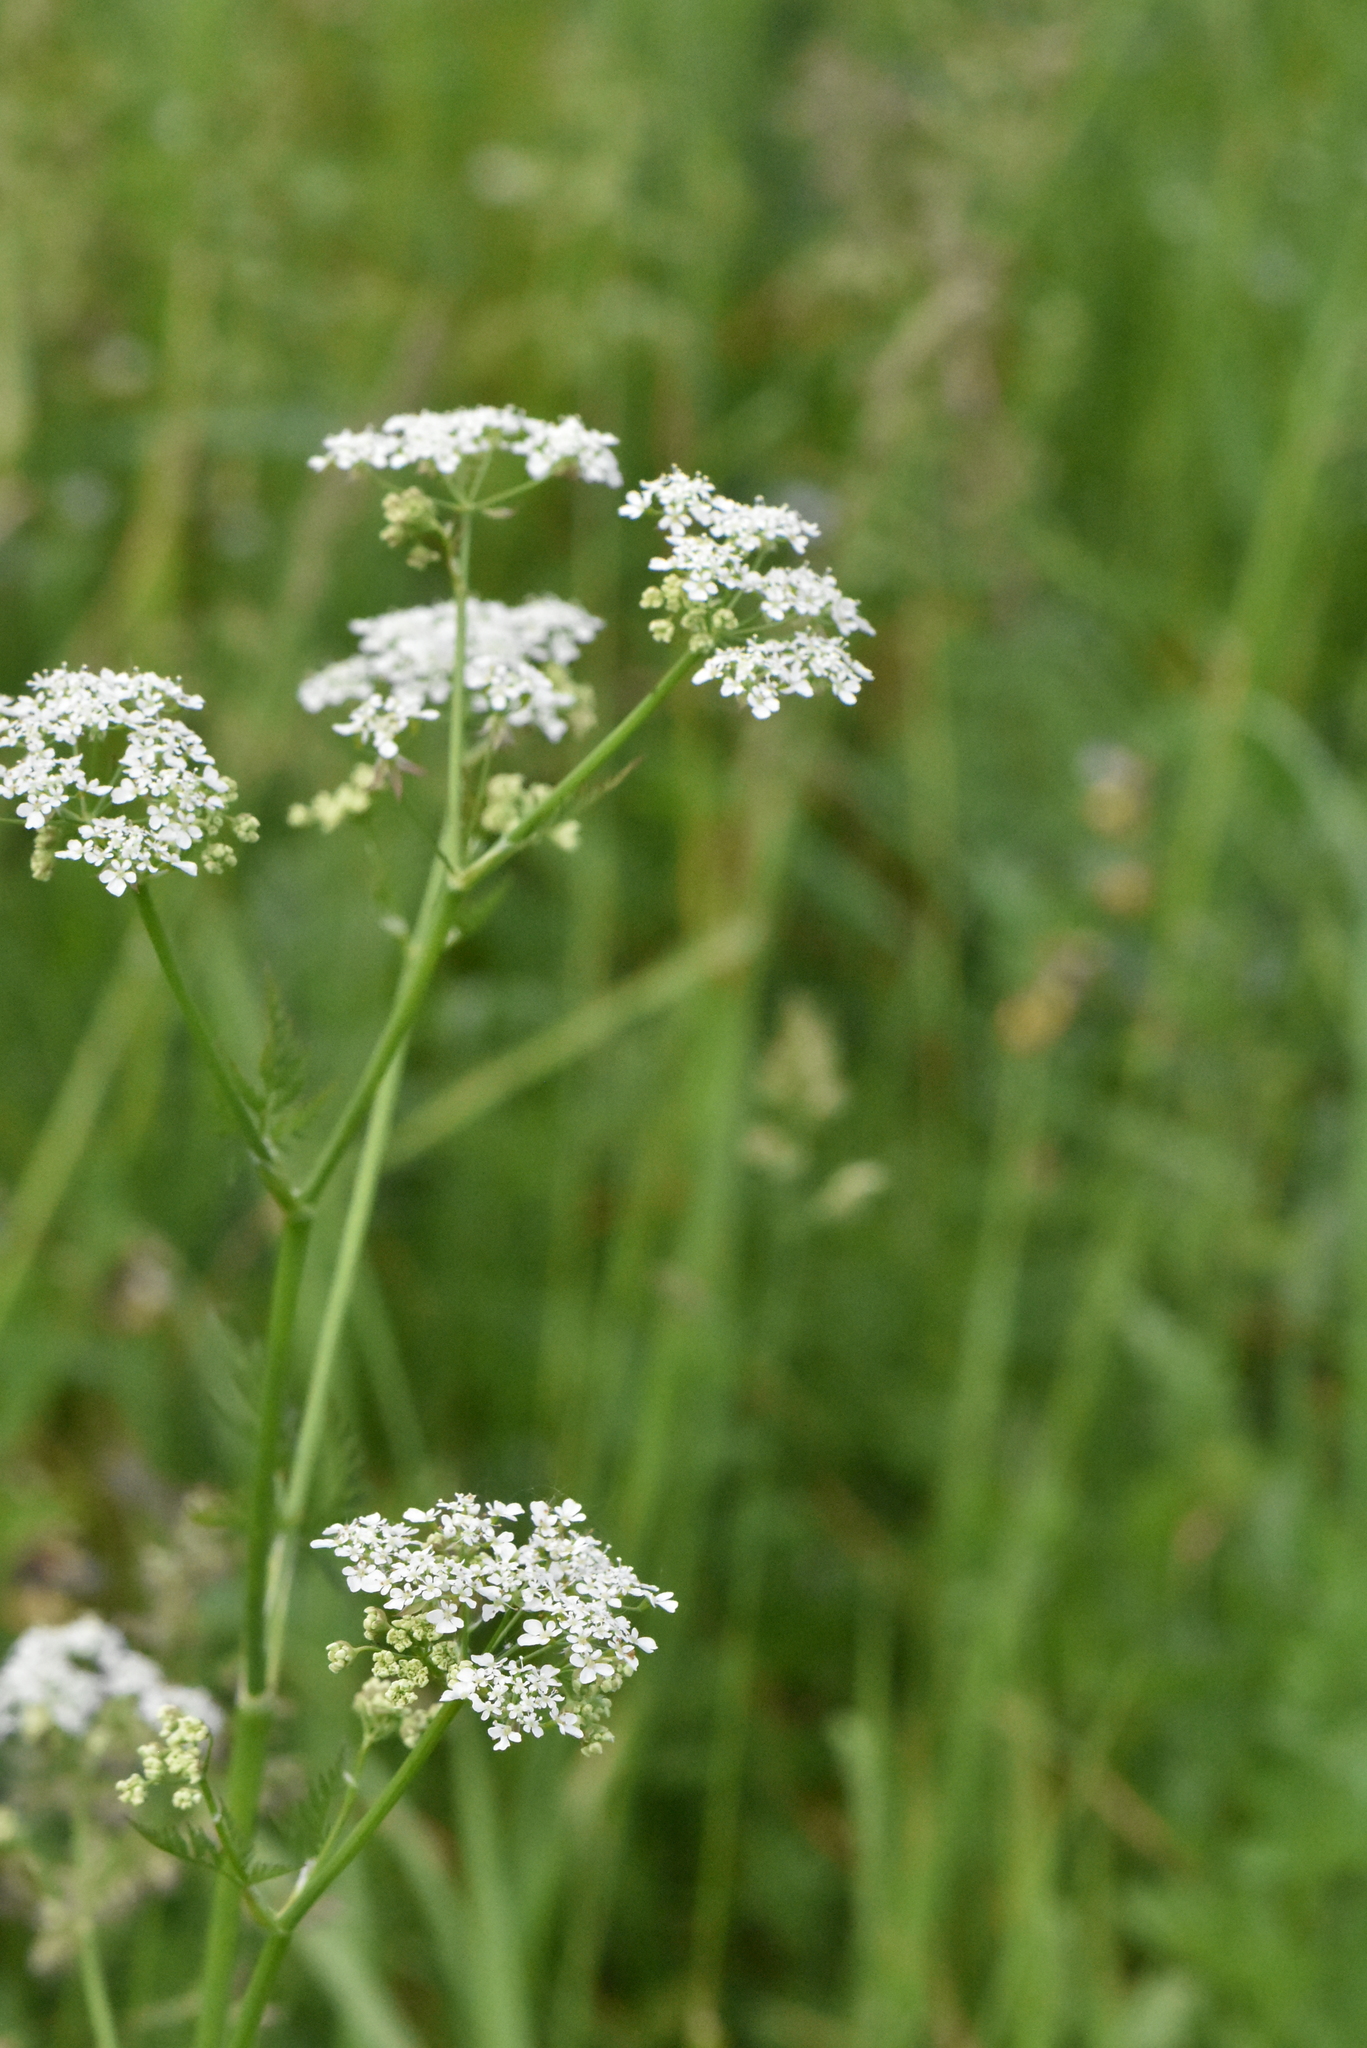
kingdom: Plantae
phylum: Tracheophyta
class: Magnoliopsida
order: Apiales
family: Apiaceae
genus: Anthriscus
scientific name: Anthriscus sylvestris
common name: Cow parsley
